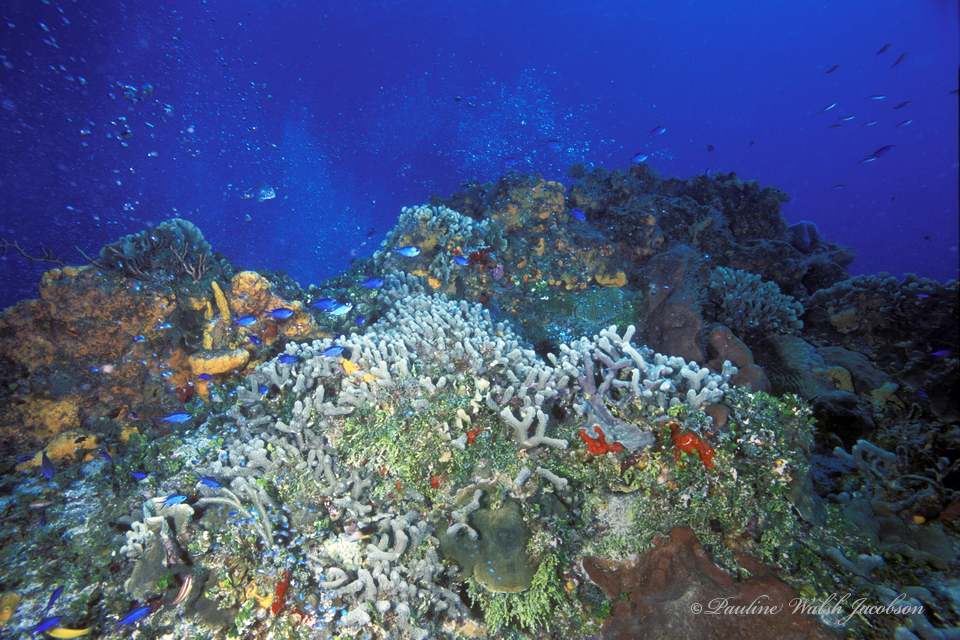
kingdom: Animalia
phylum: Chordata
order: Perciformes
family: Pomacentridae
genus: Chromis
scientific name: Chromis cyanea
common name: Blue chromis
